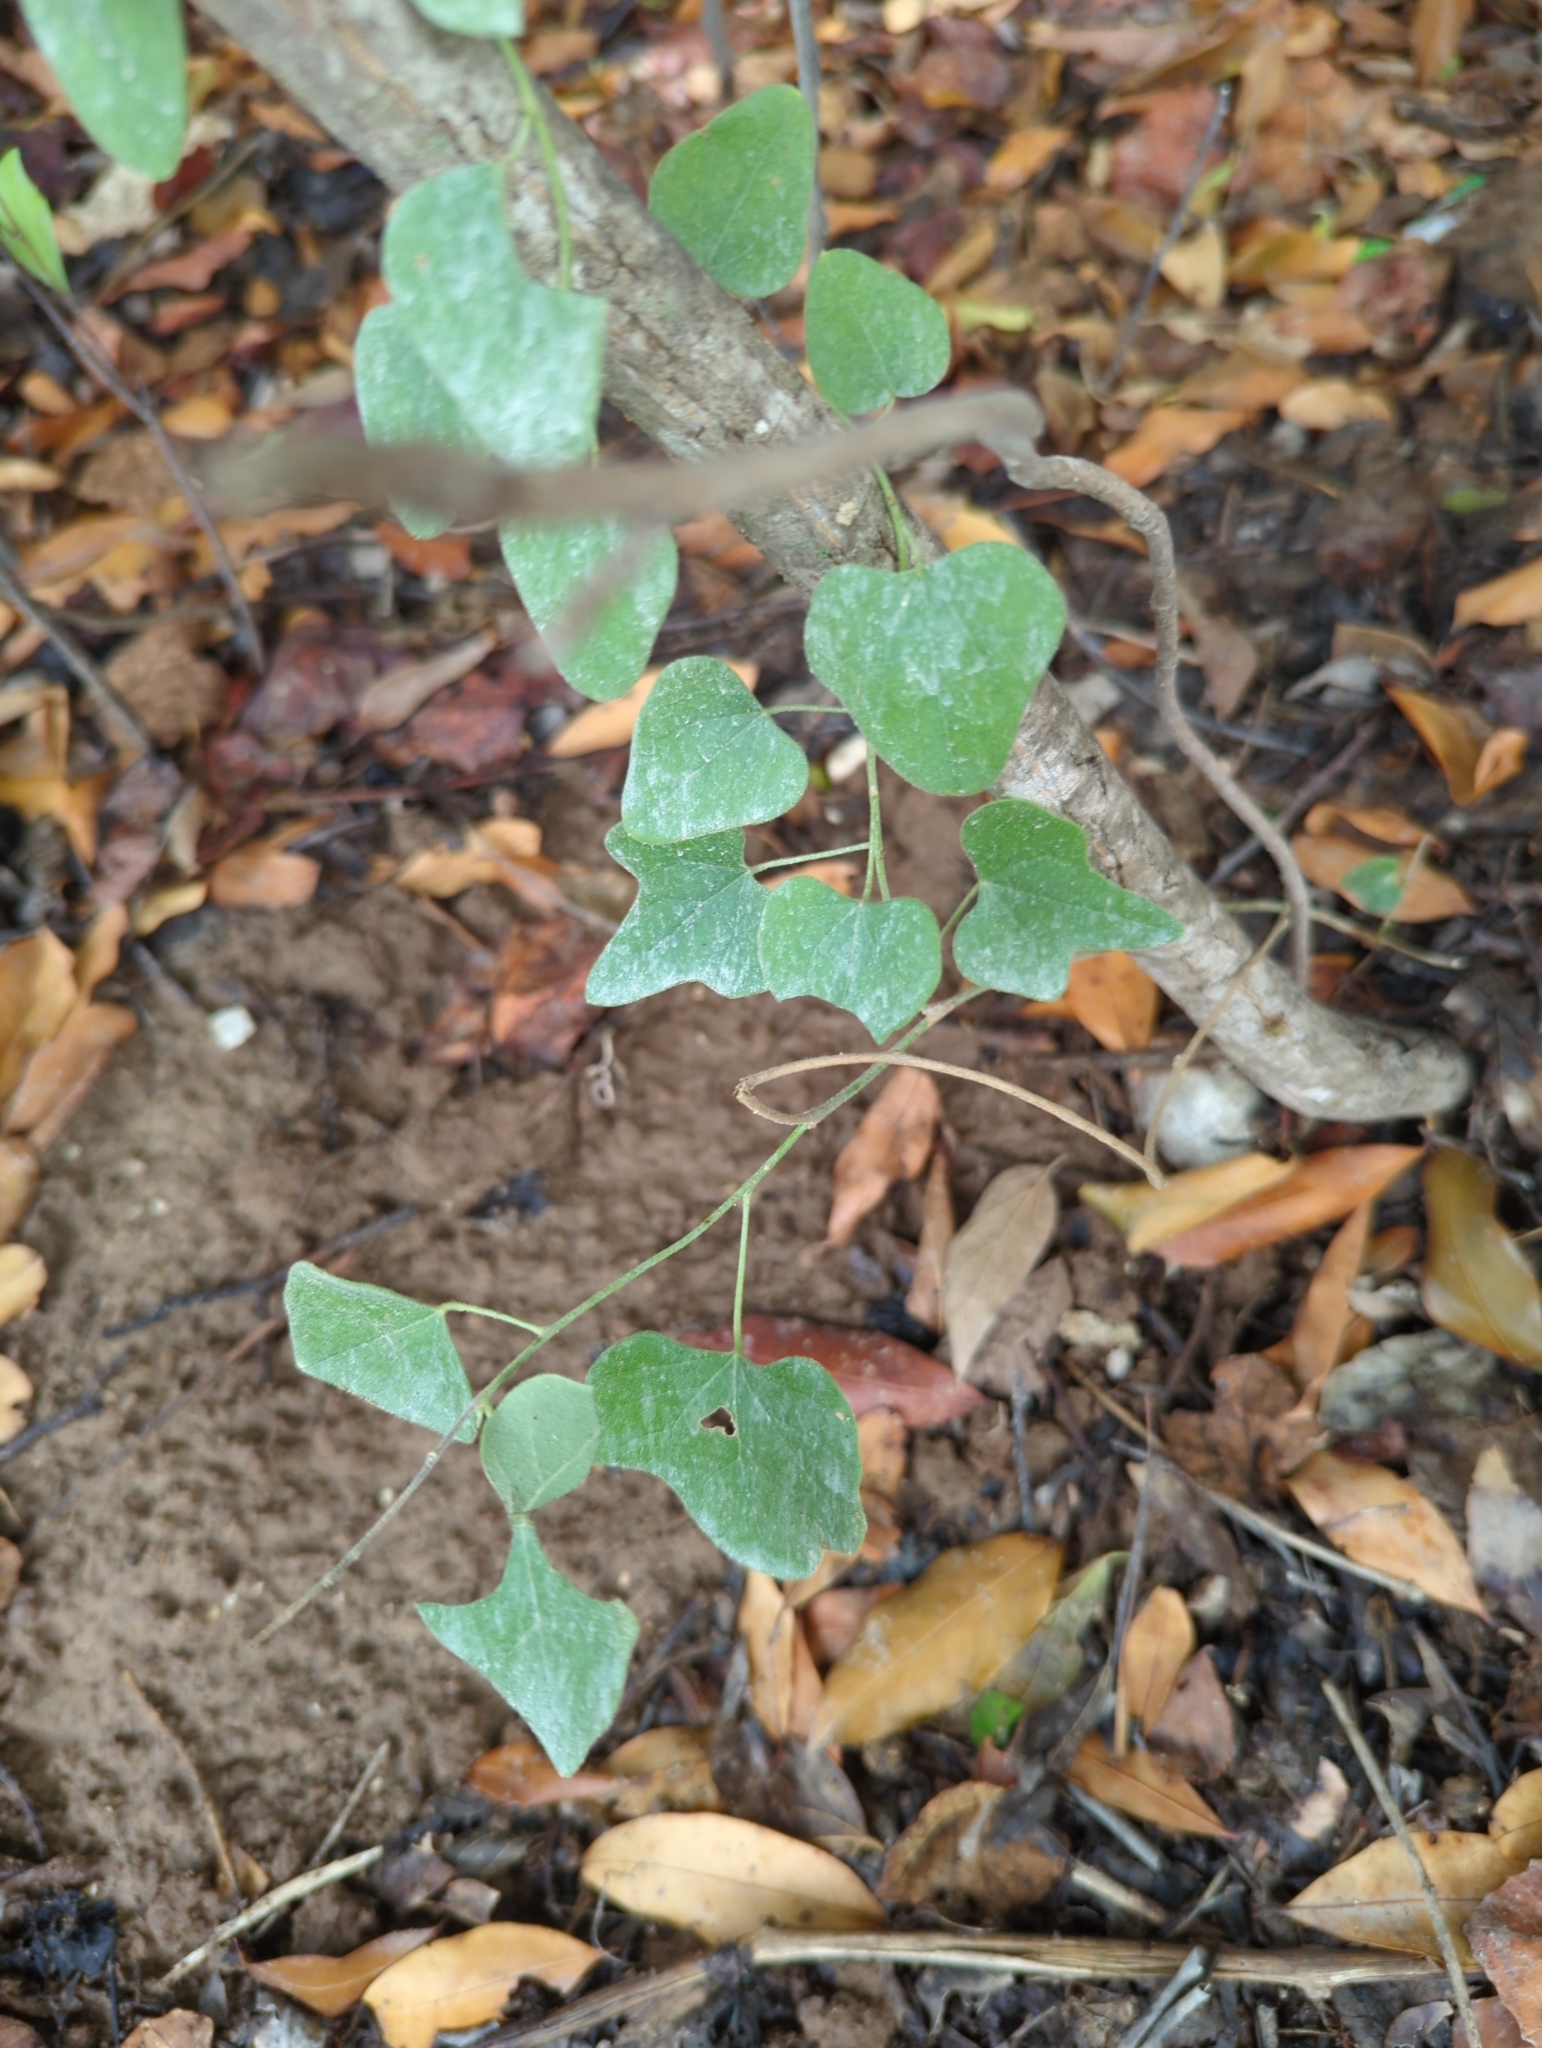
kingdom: Plantae
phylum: Tracheophyta
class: Magnoliopsida
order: Ranunculales
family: Menispermaceae
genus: Cocculus
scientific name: Cocculus carolinus
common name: Carolina moonseed
